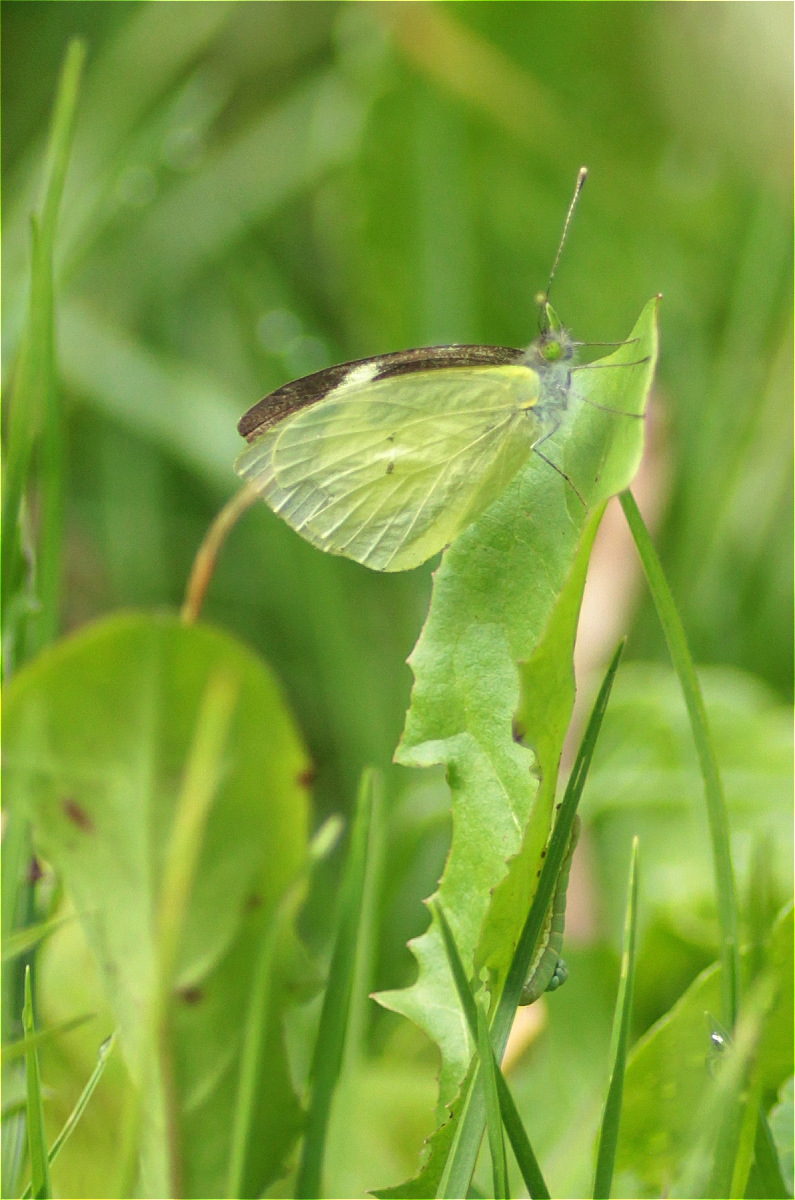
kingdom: Animalia
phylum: Arthropoda
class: Insecta
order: Lepidoptera
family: Pieridae
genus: Leptophobia
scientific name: Leptophobia eleone
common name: Silky wanderer
